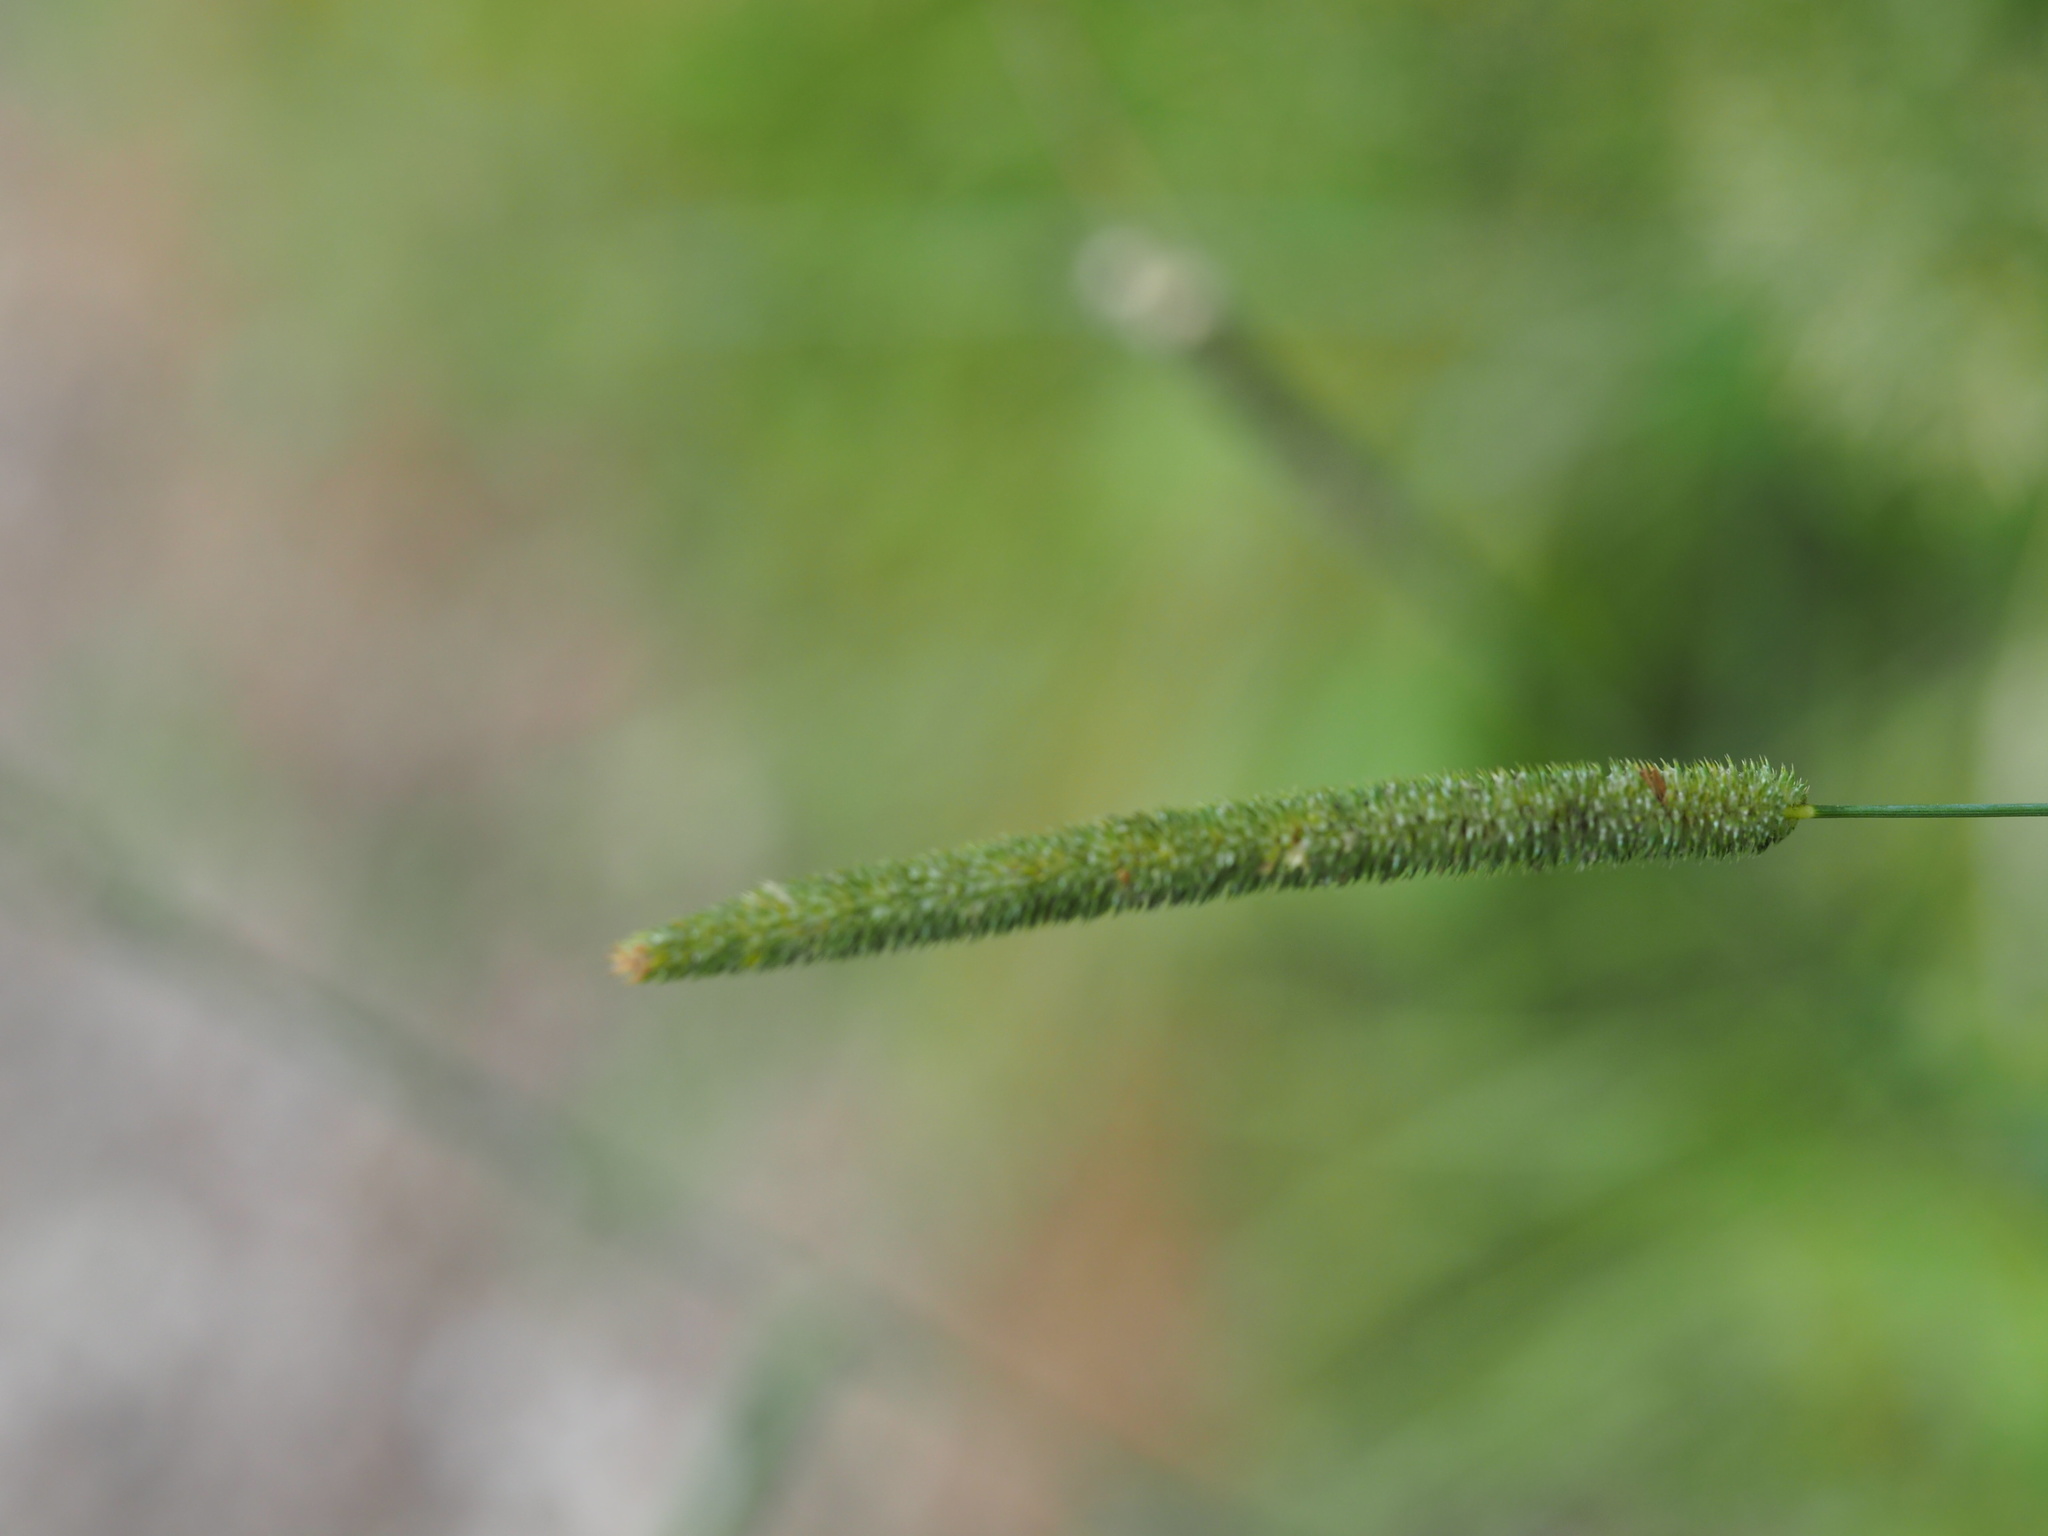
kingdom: Plantae
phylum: Tracheophyta
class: Liliopsida
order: Poales
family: Poaceae
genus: Phleum
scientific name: Phleum pratense
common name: Timothy grass
